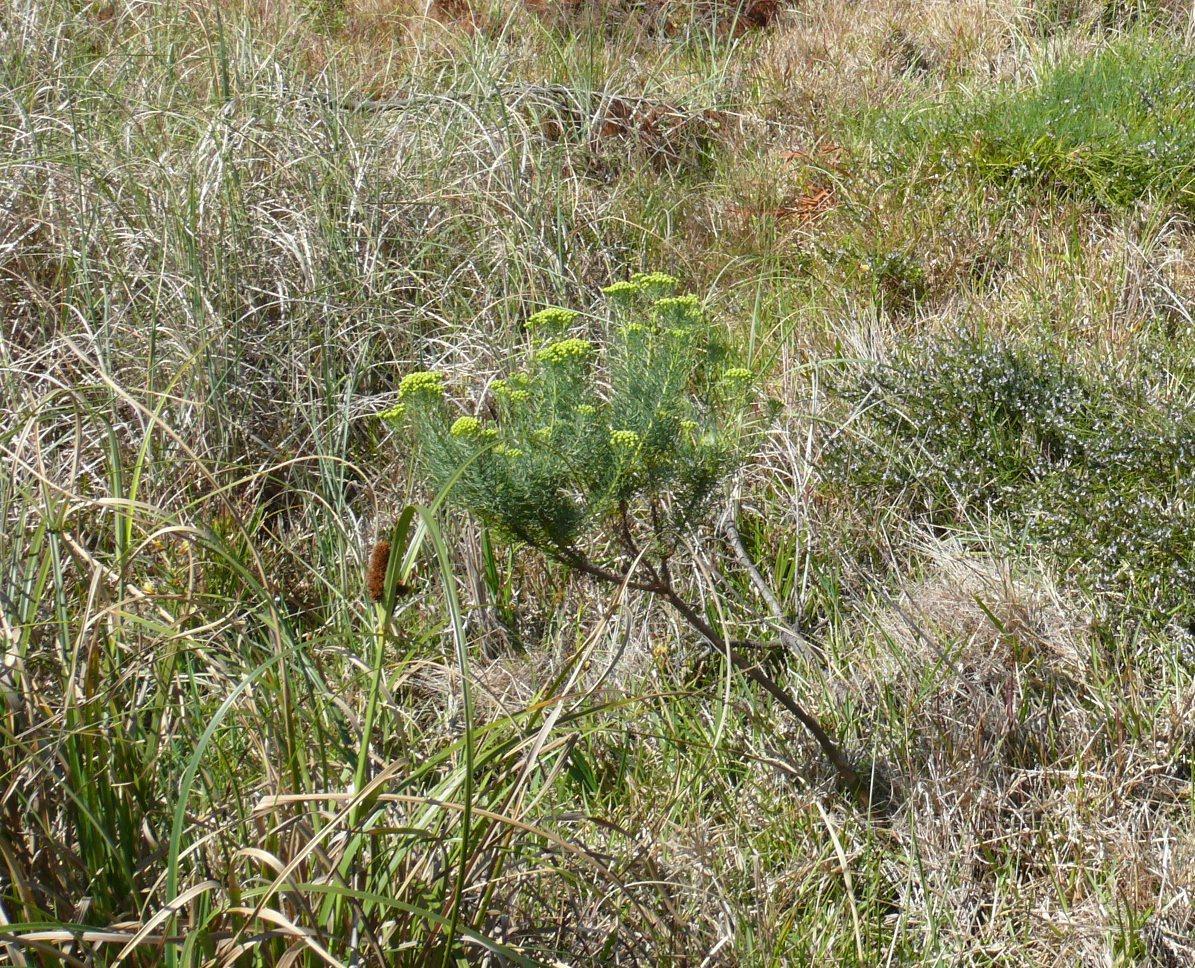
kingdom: Plantae
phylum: Tracheophyta
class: Magnoliopsida
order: Asterales
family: Asteraceae
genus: Hymenolepis
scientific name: Hymenolepis crithmifolia
